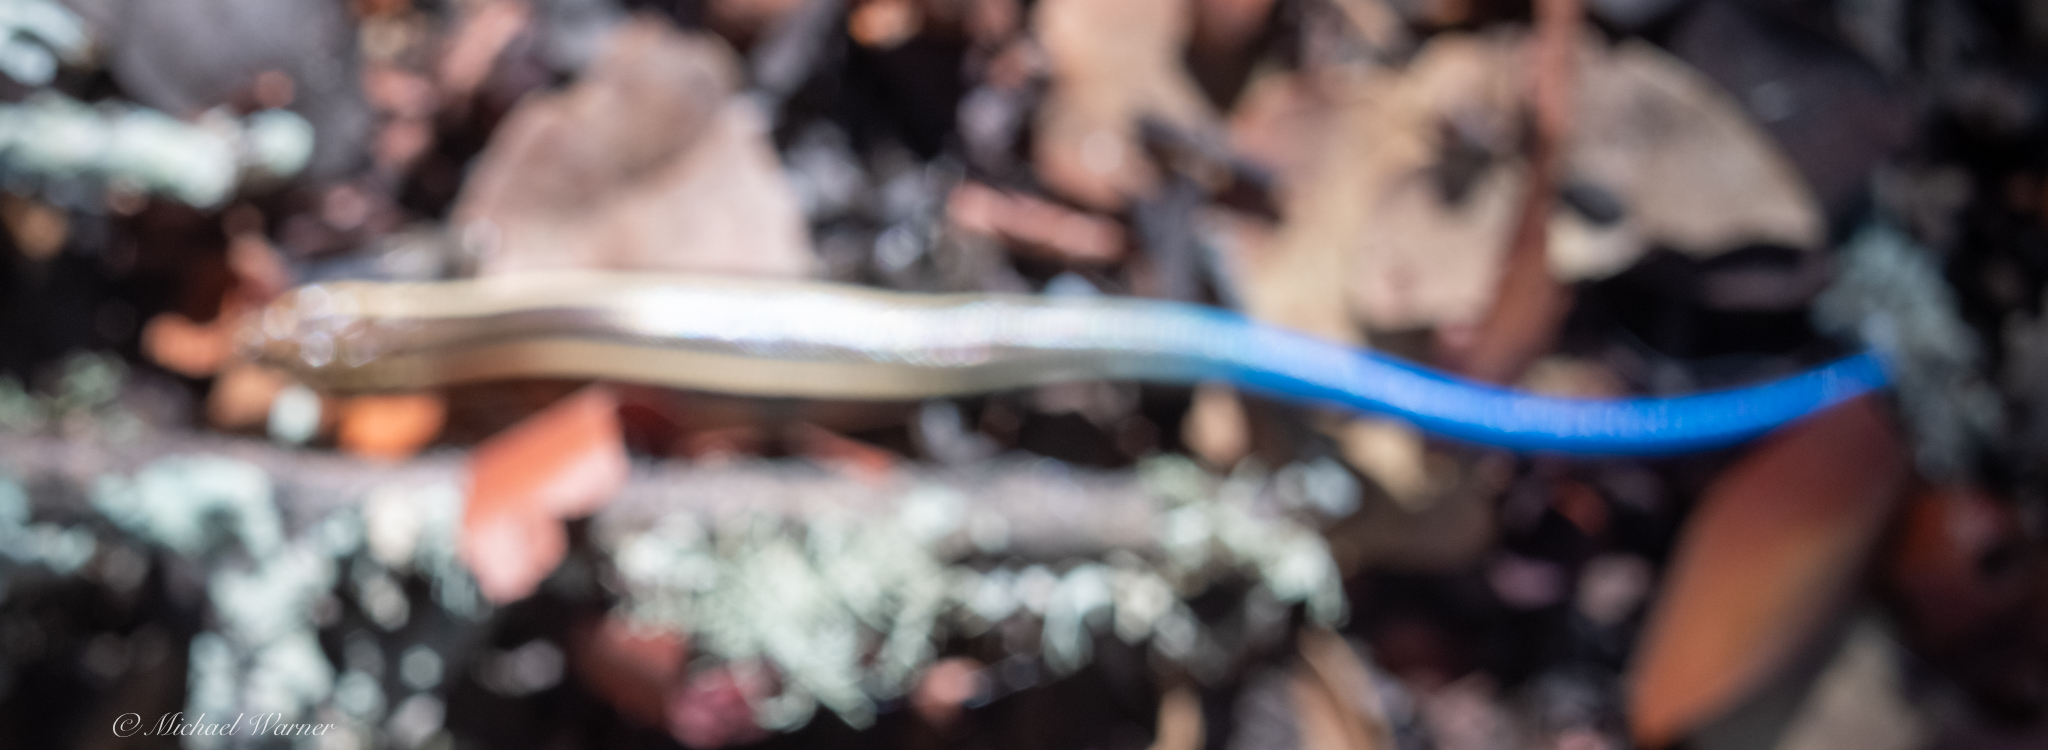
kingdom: Animalia
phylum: Chordata
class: Squamata
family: Scincidae
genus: Plestiodon
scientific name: Plestiodon skiltonianus
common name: Coronado island skink [interparietalis]
